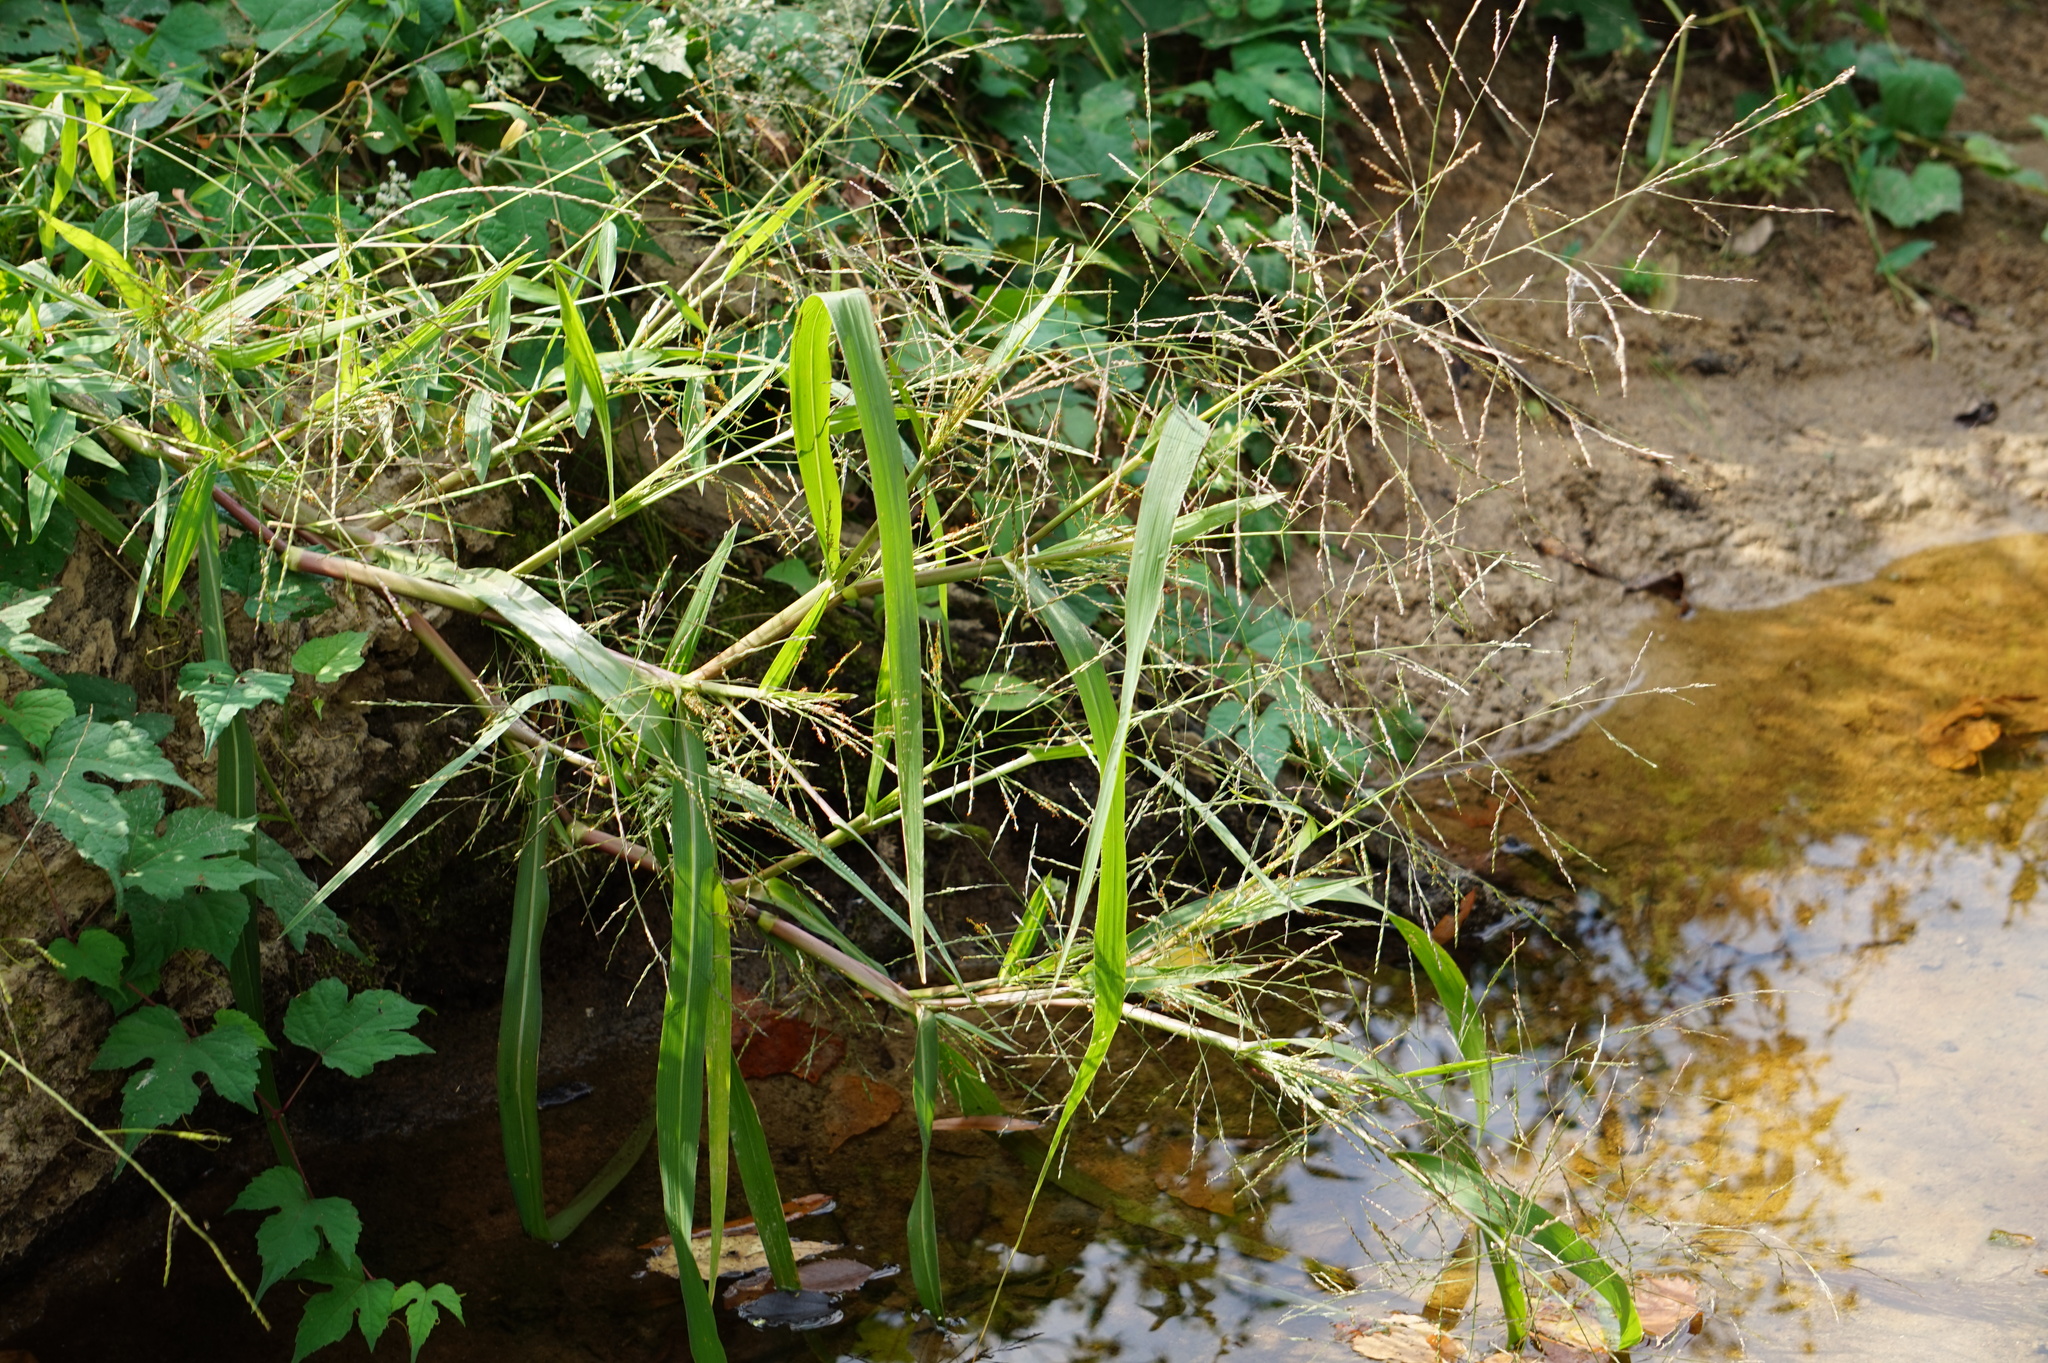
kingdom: Plantae
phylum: Tracheophyta
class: Liliopsida
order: Poales
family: Poaceae
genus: Panicum
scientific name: Panicum dichotomiflorum
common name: Autumn millet
